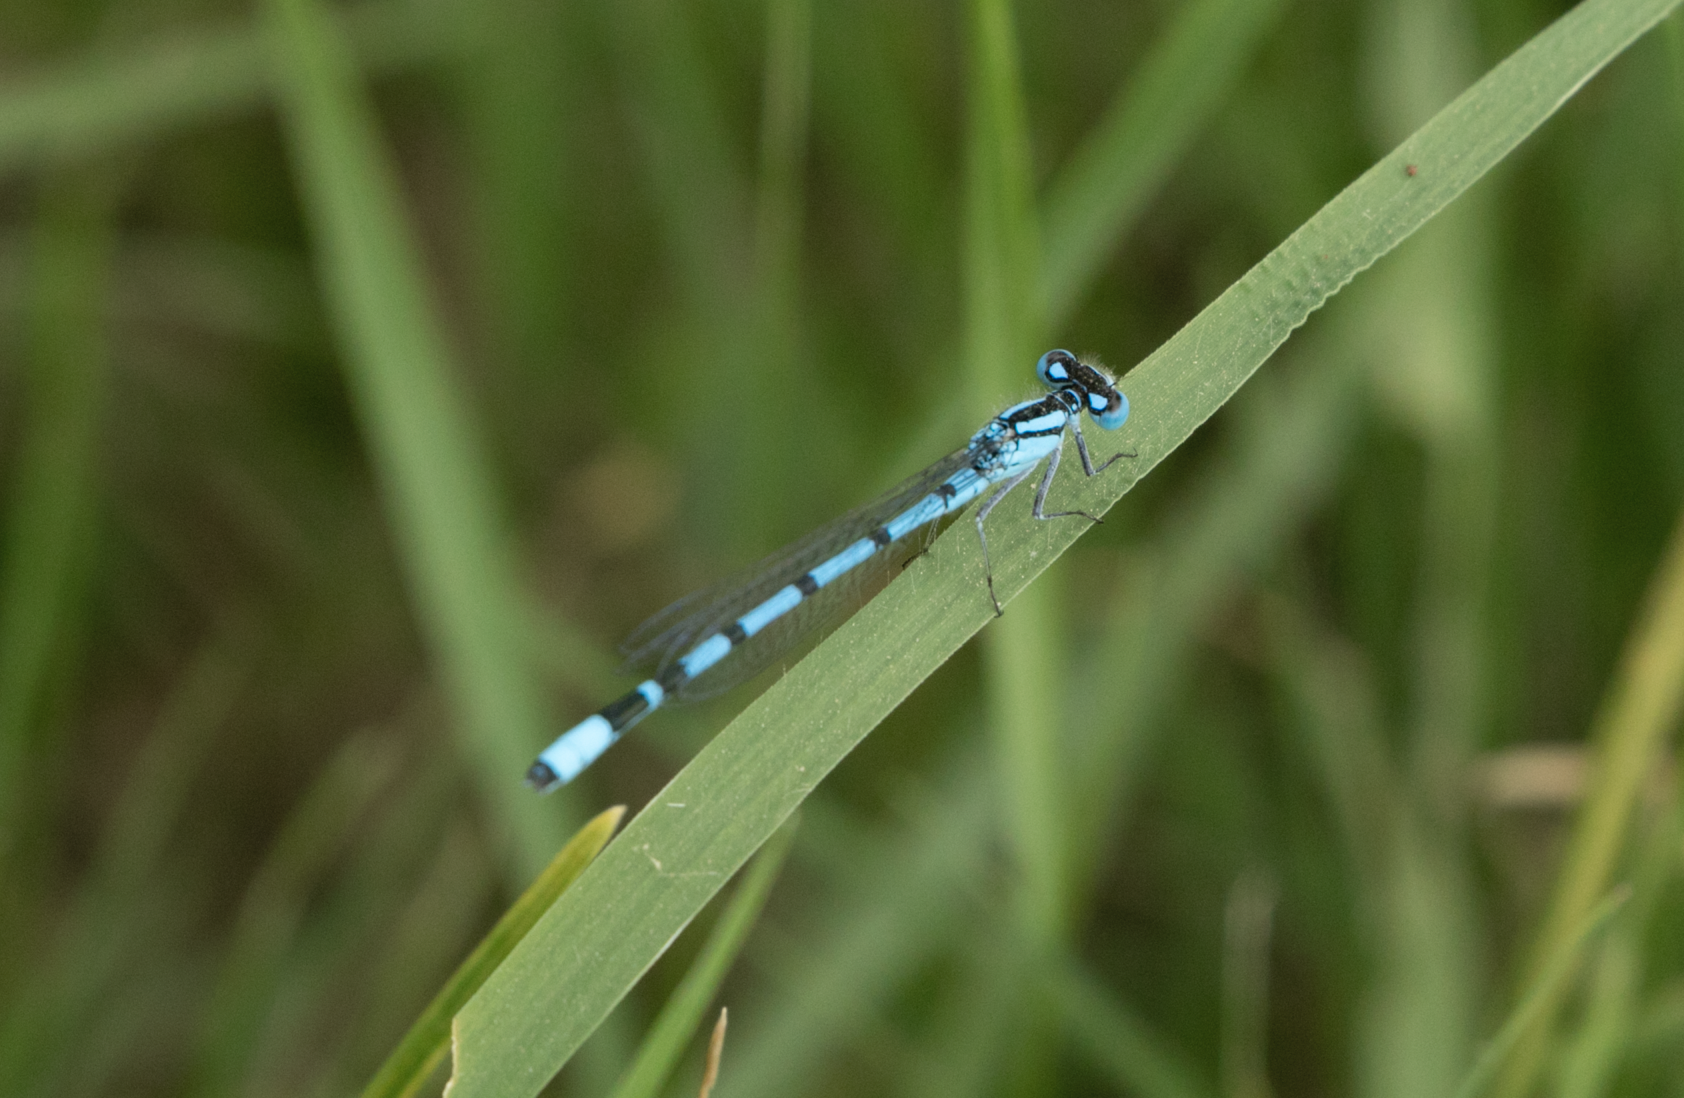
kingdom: Animalia
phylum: Arthropoda
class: Insecta
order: Odonata
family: Coenagrionidae
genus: Enallagma
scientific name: Enallagma cyathigerum
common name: Common blue damselfly
